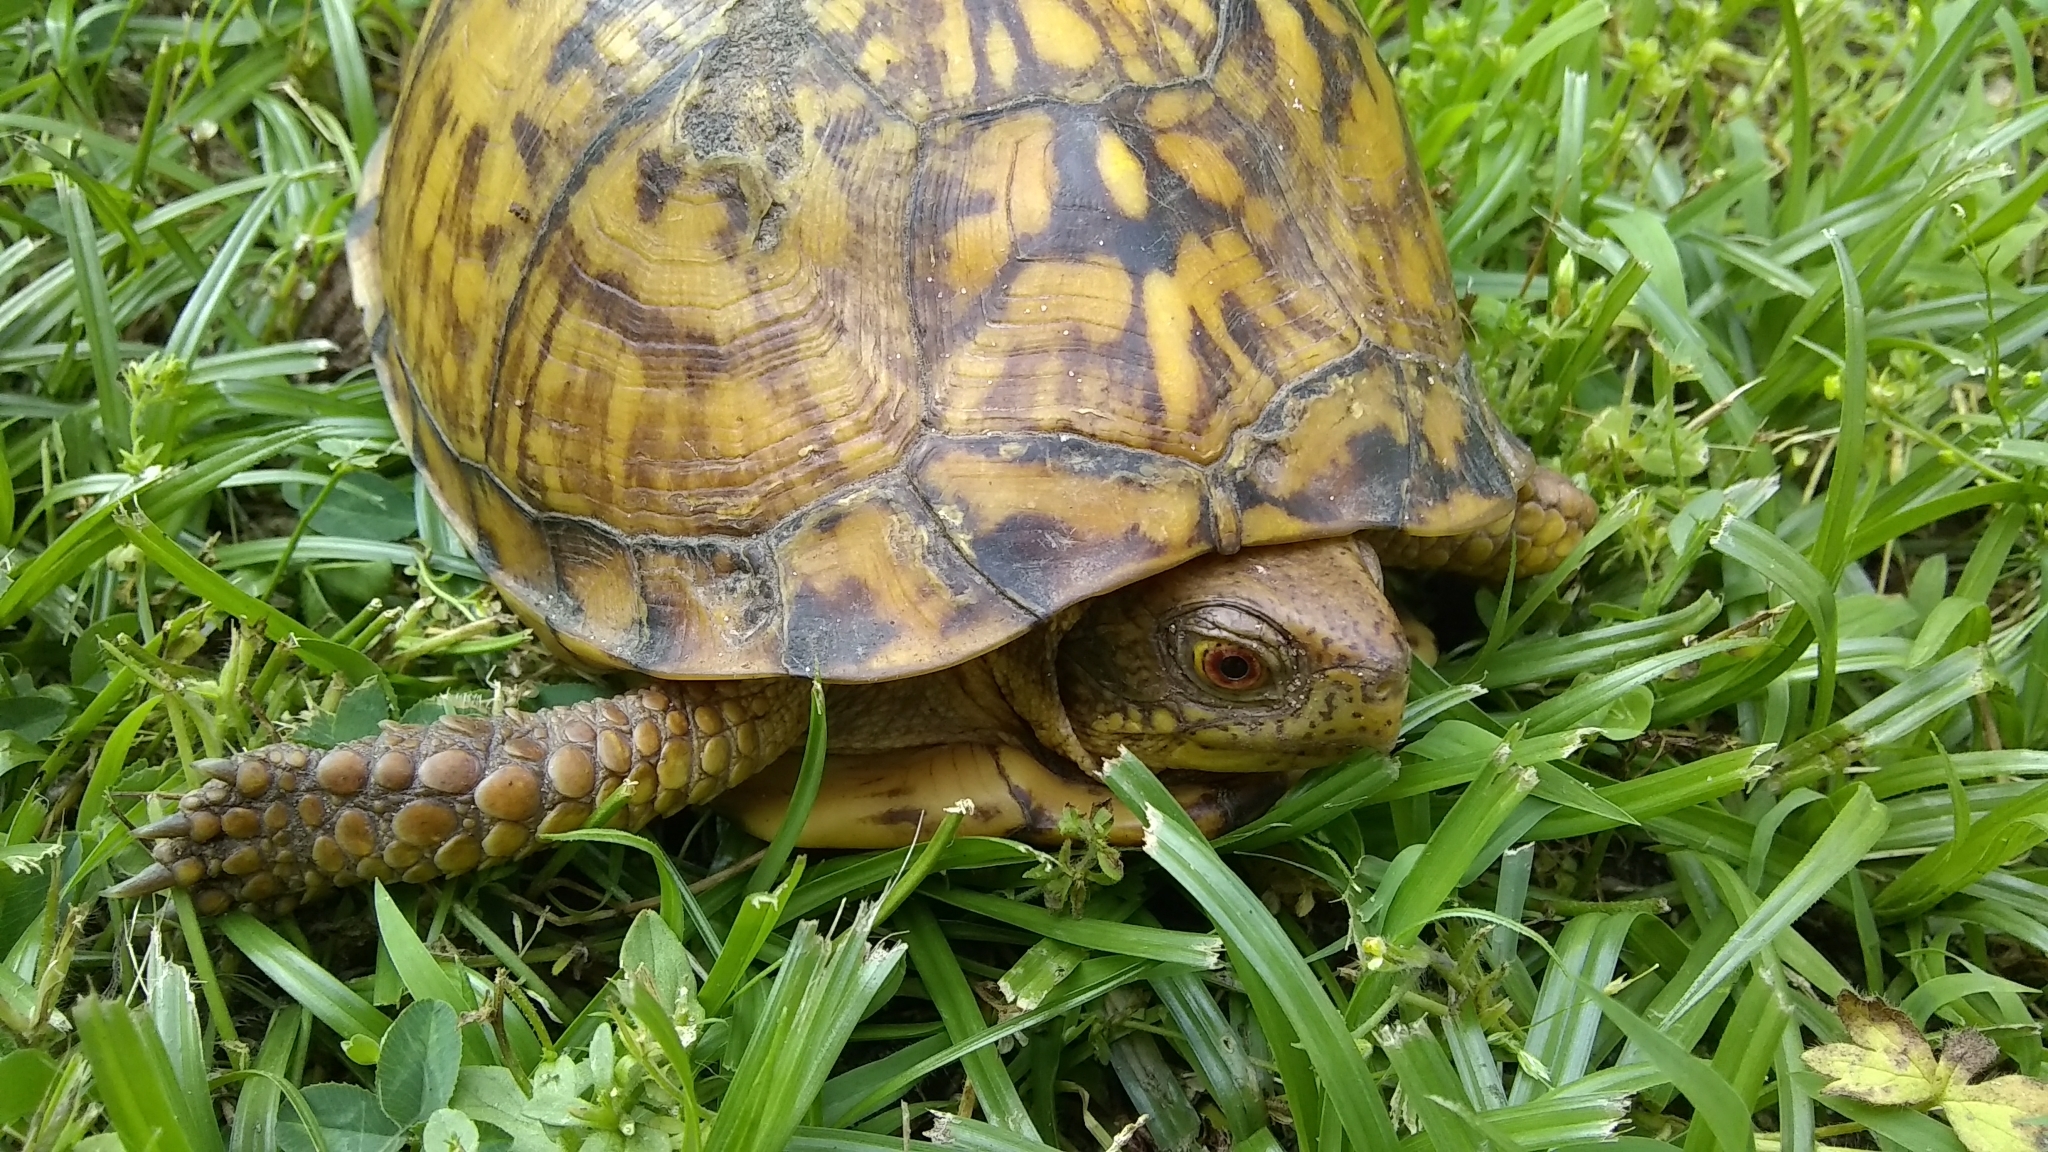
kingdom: Animalia
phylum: Chordata
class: Testudines
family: Emydidae
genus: Terrapene
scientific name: Terrapene carolina
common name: Common box turtle
